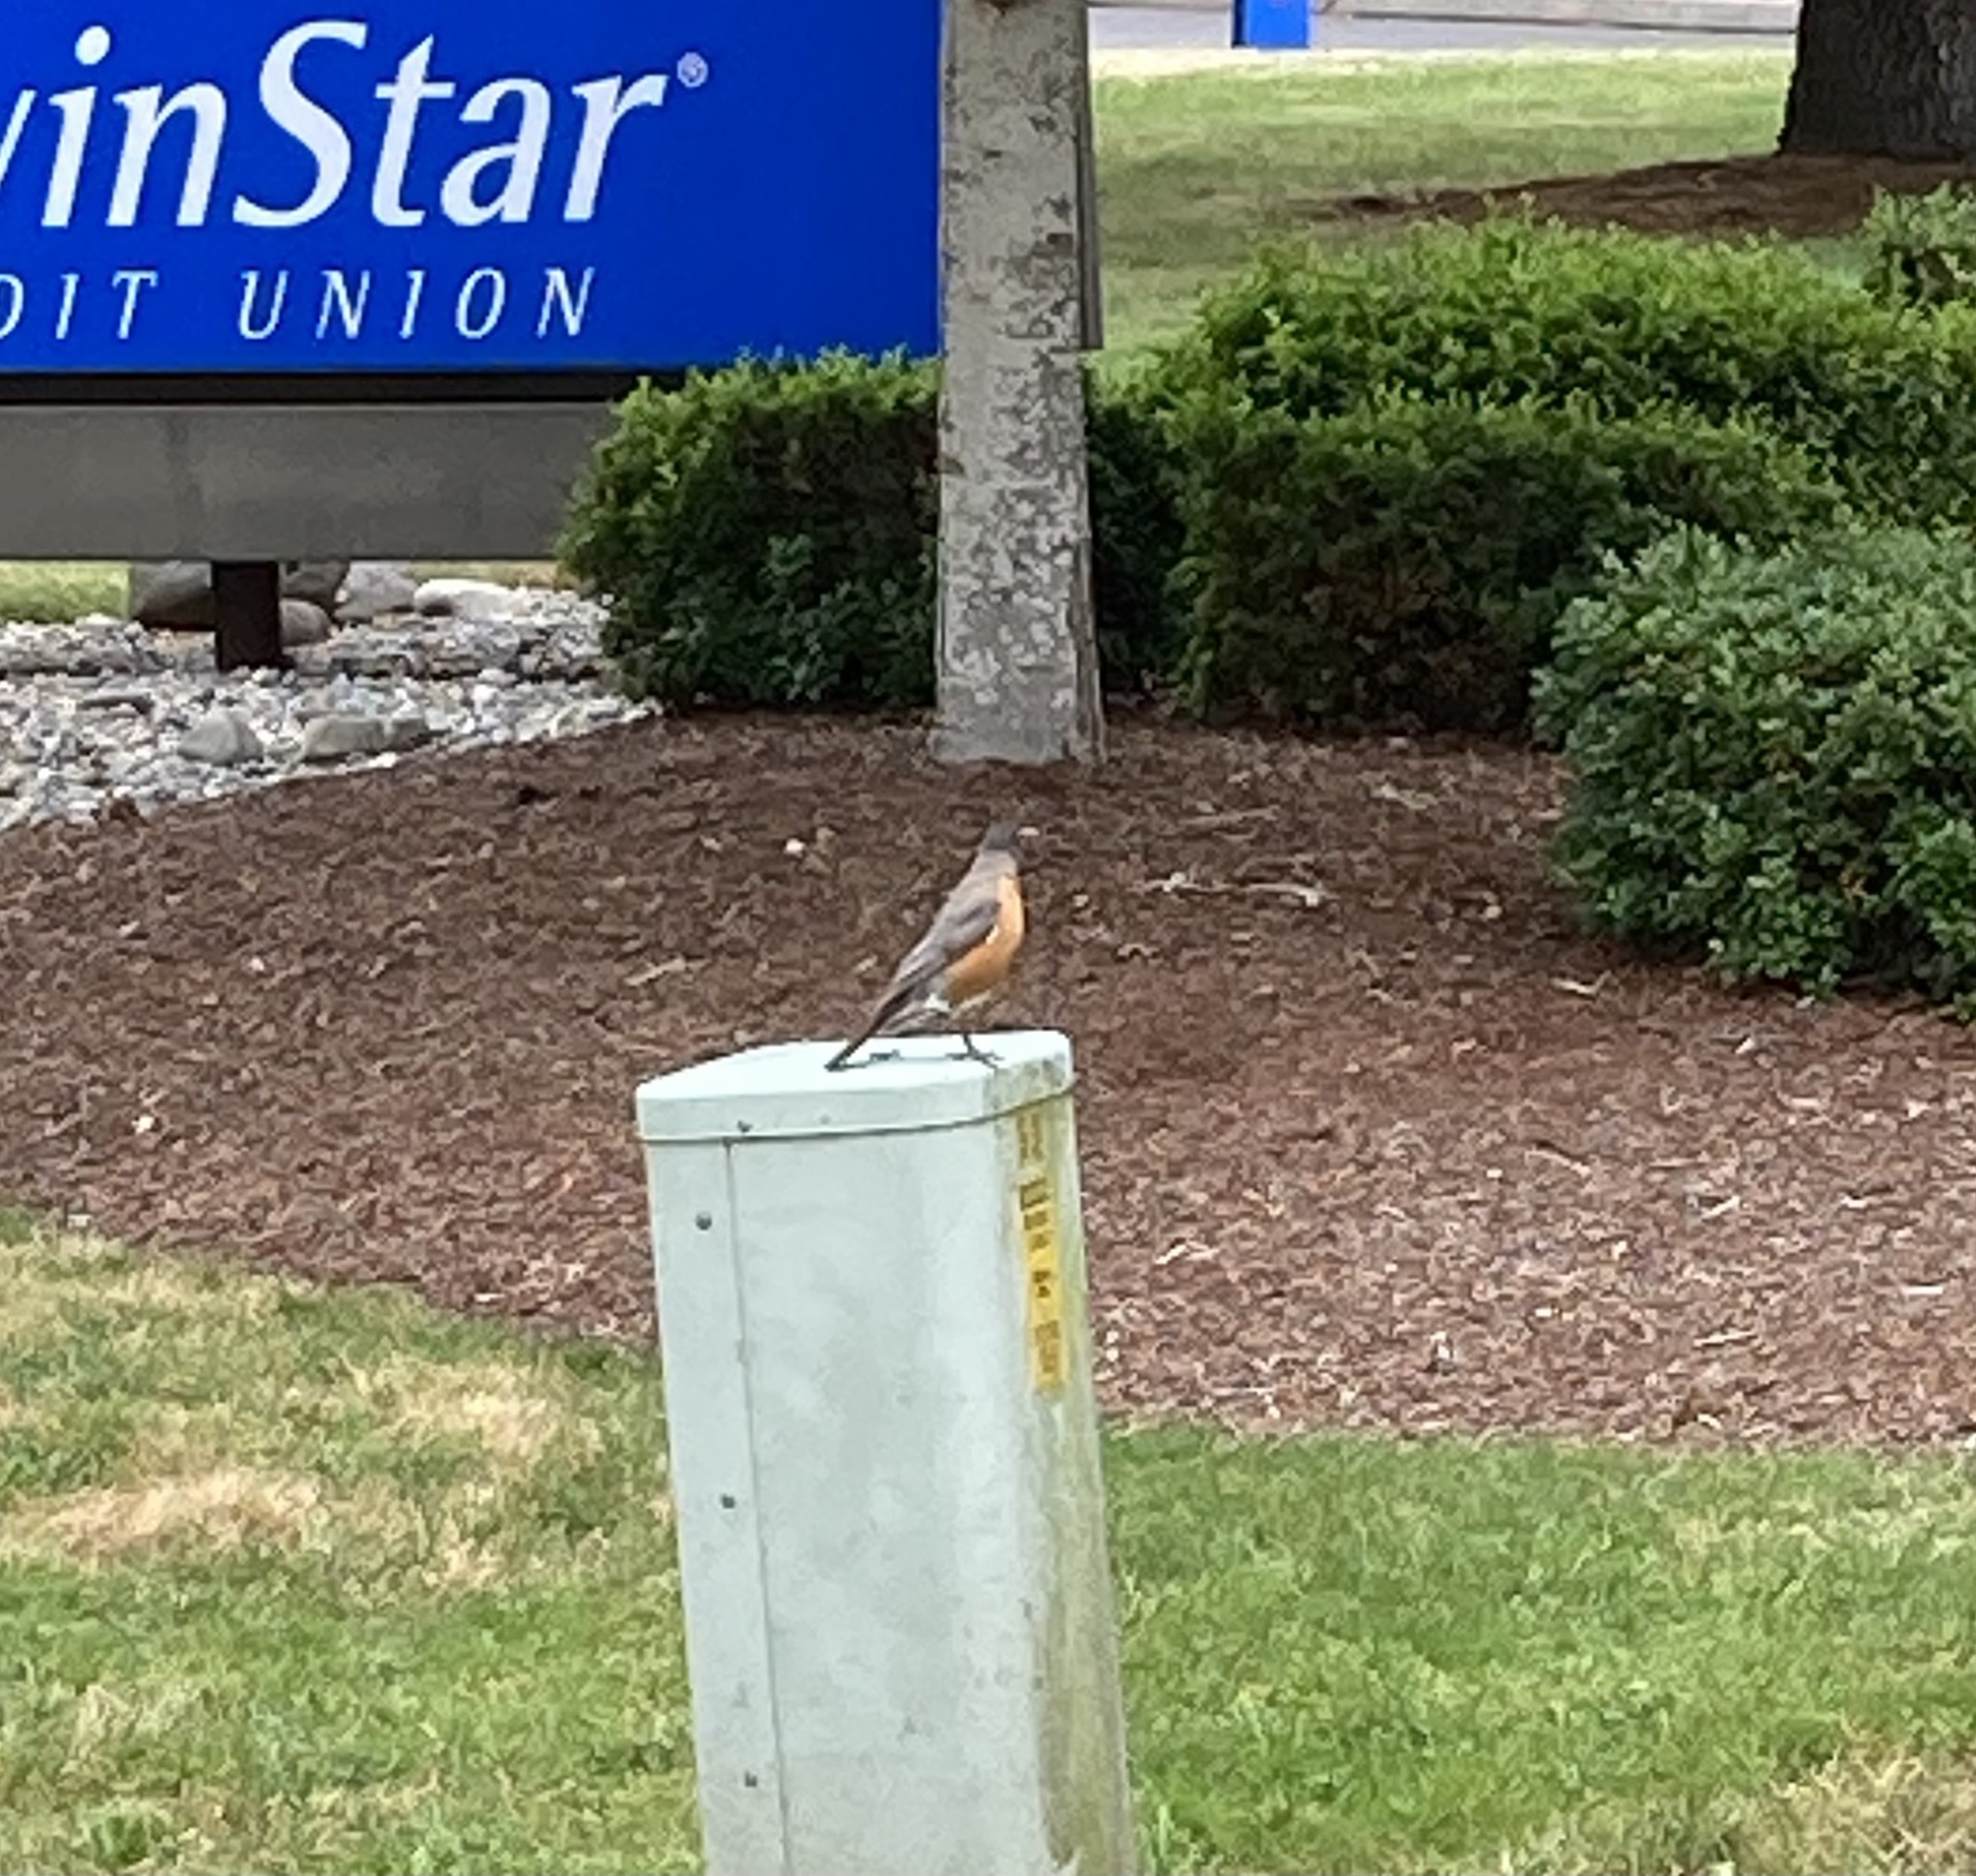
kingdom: Animalia
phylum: Chordata
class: Aves
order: Passeriformes
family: Turdidae
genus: Turdus
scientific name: Turdus migratorius
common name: American robin
